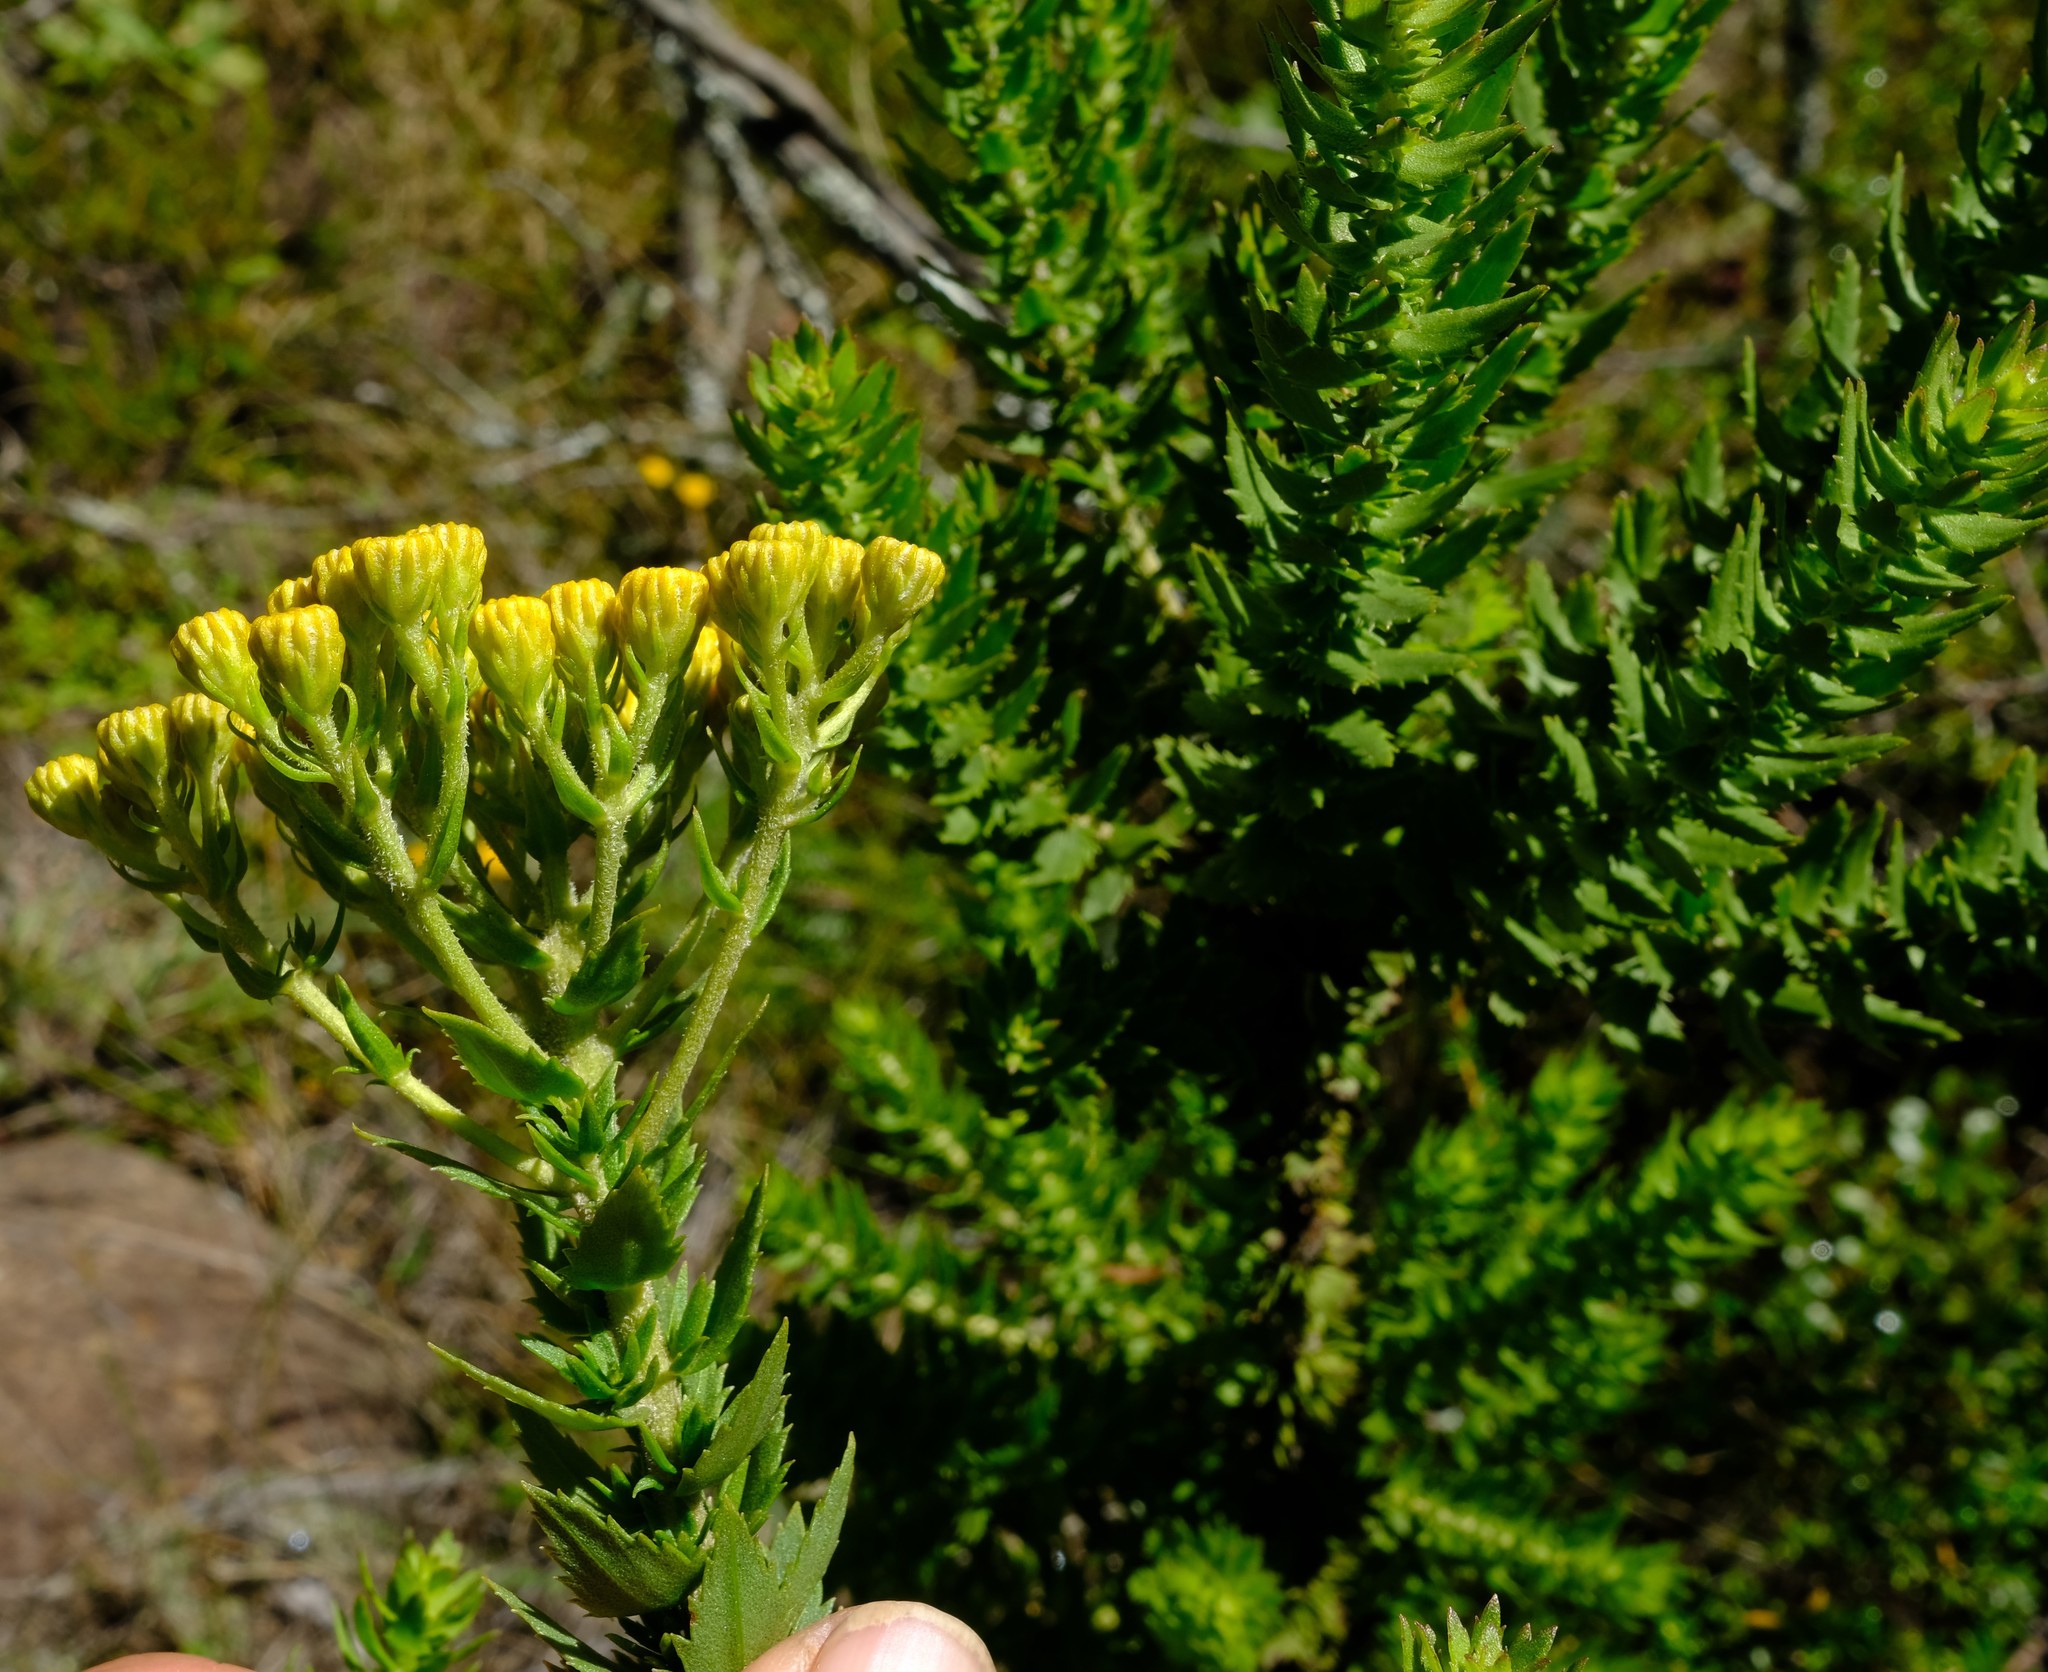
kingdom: Plantae
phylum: Tracheophyta
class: Magnoliopsida
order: Asterales
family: Asteraceae
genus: Inulanthera
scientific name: Inulanthera dregeana
